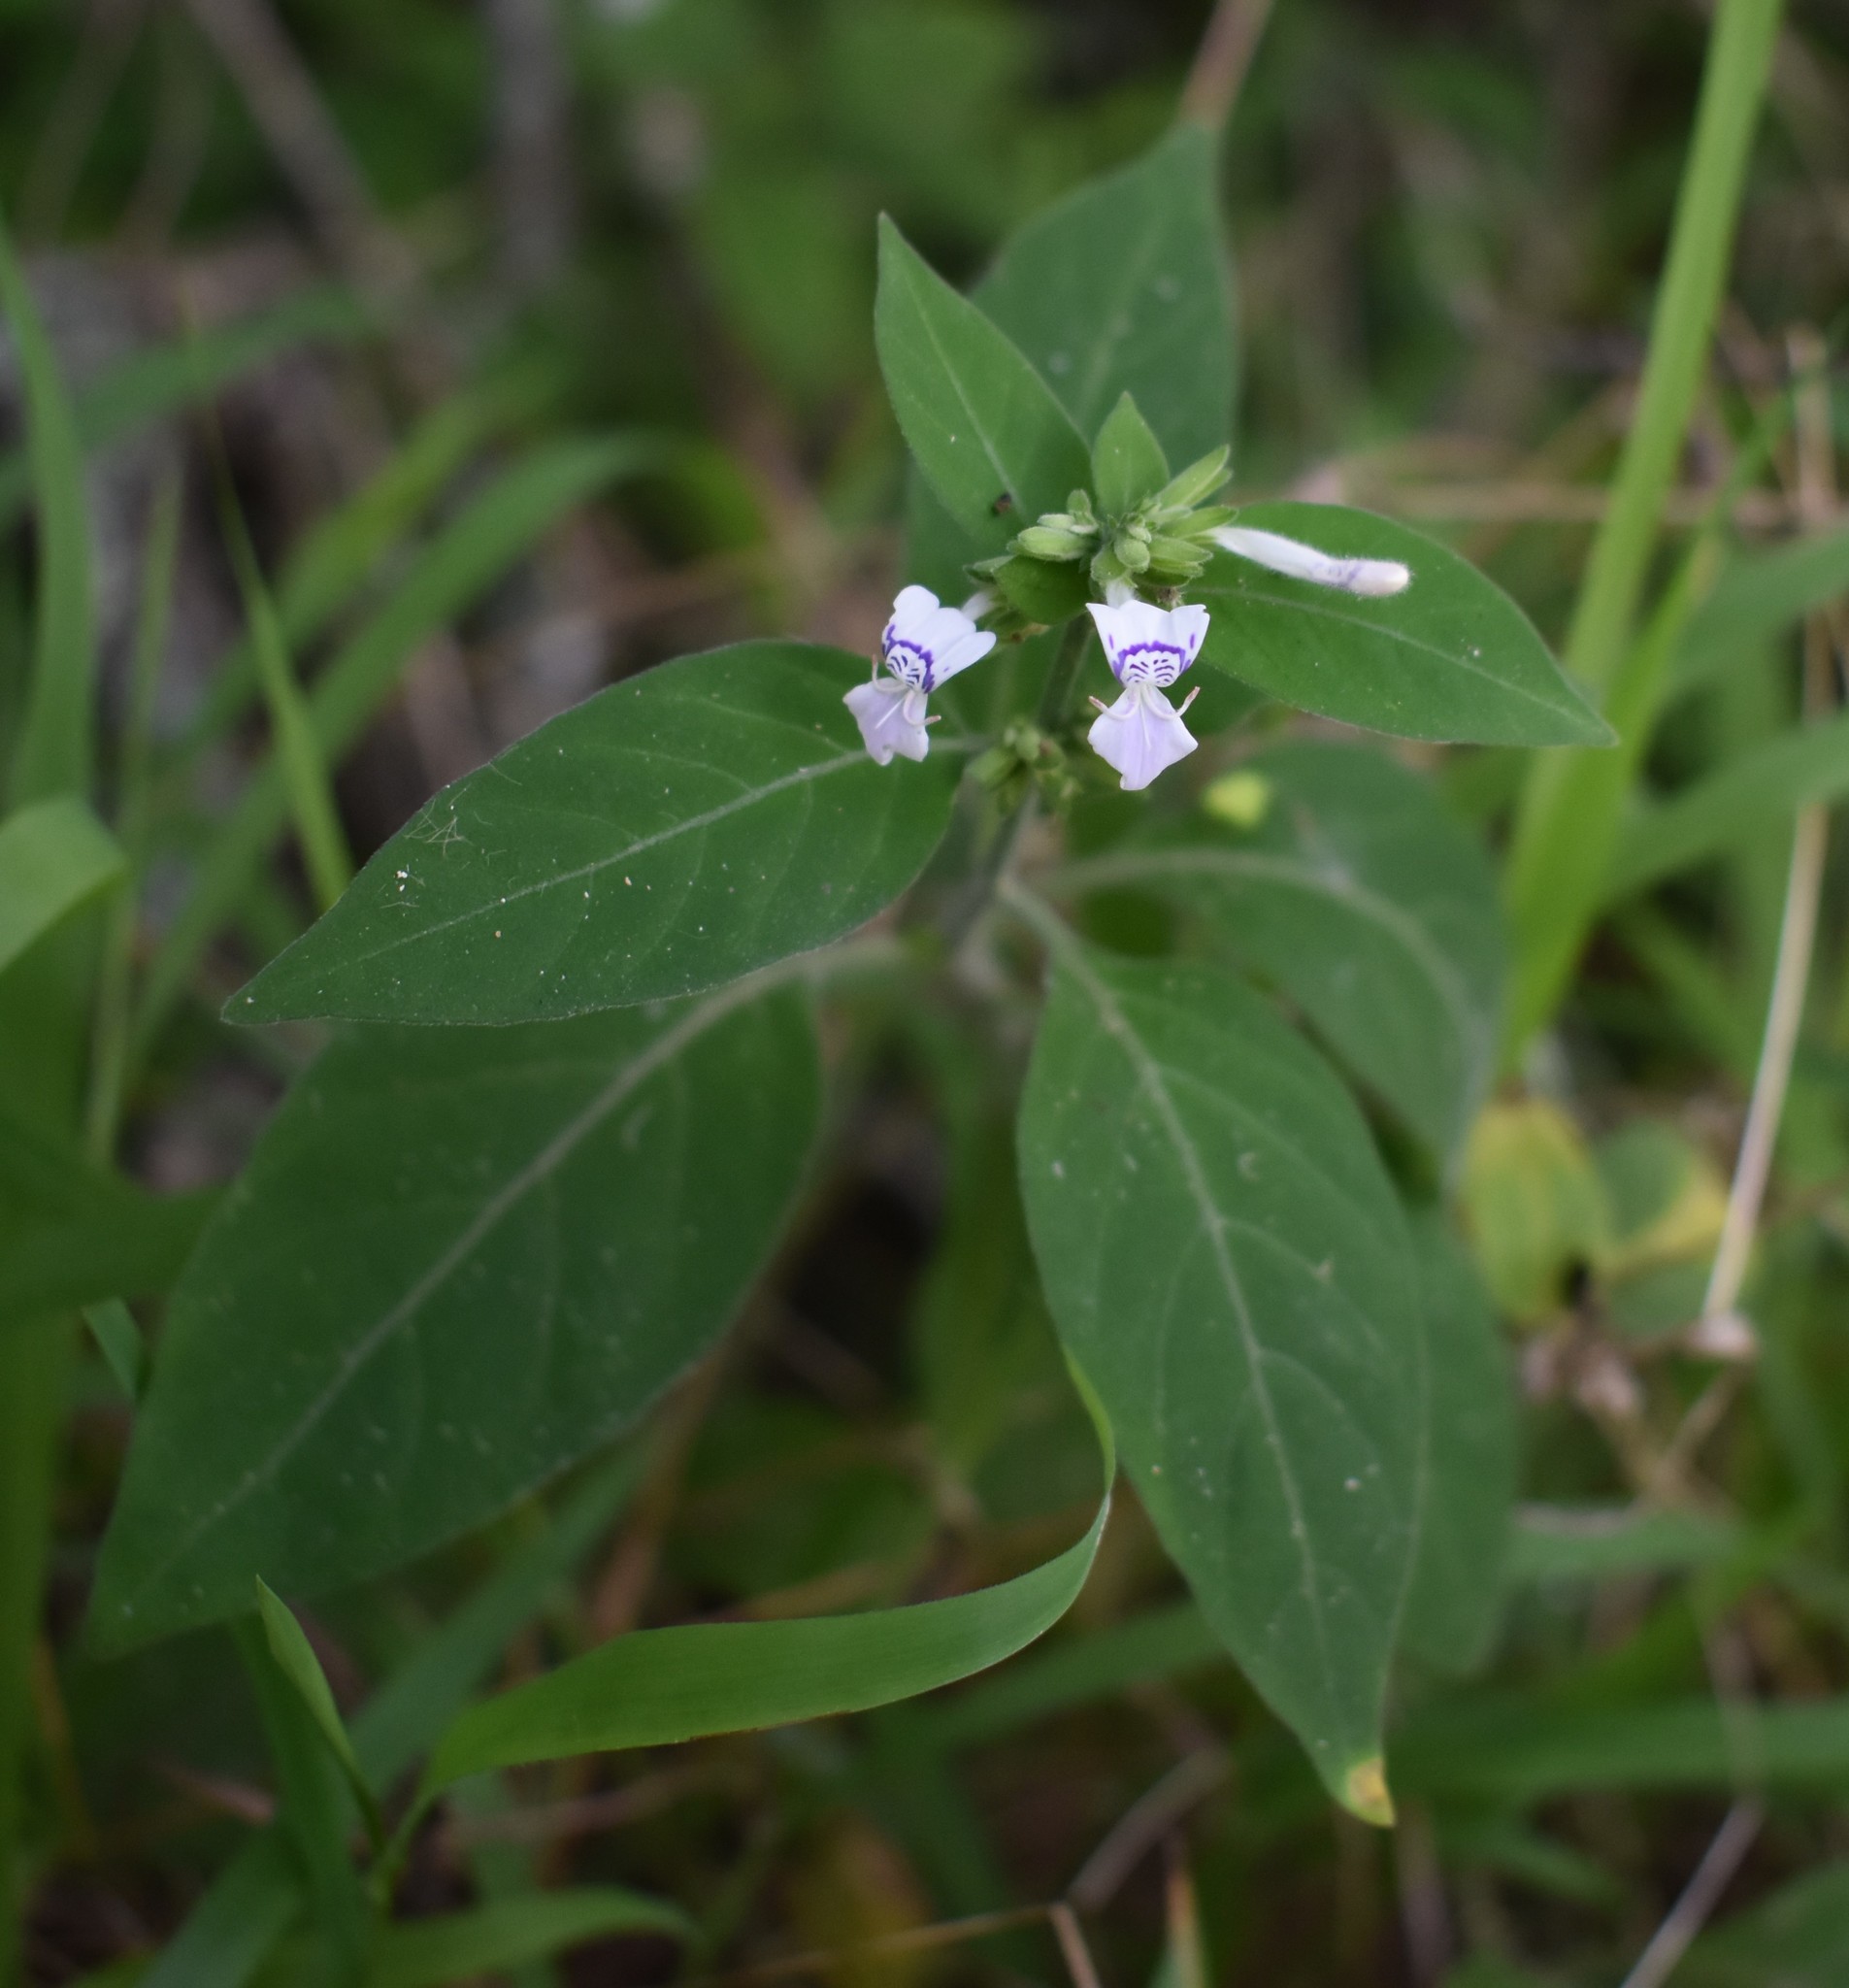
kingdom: Plantae
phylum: Tracheophyta
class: Magnoliopsida
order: Lamiales
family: Acanthaceae
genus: Hypoestes
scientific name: Hypoestes forskaolii
